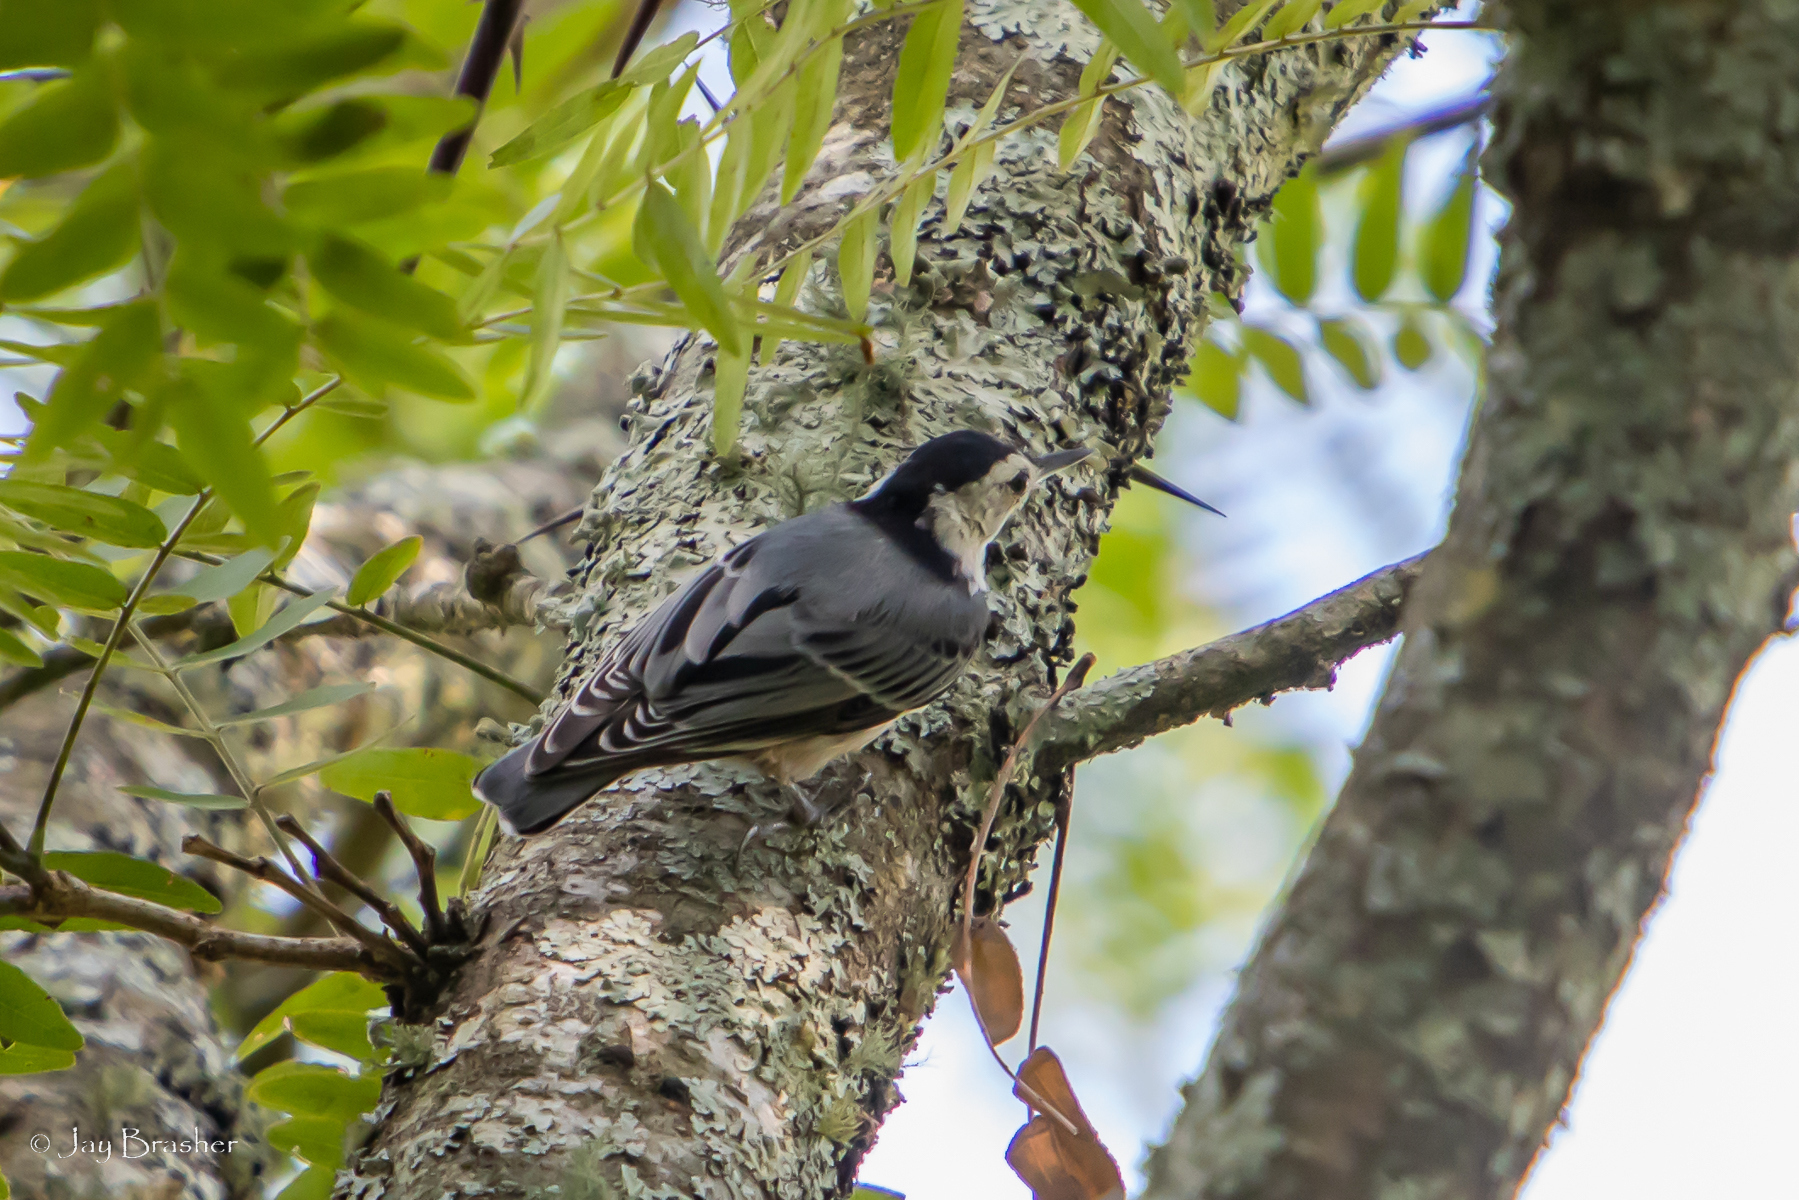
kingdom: Animalia
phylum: Chordata
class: Aves
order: Passeriformes
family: Sittidae
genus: Sitta
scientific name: Sitta carolinensis
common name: White-breasted nuthatch
